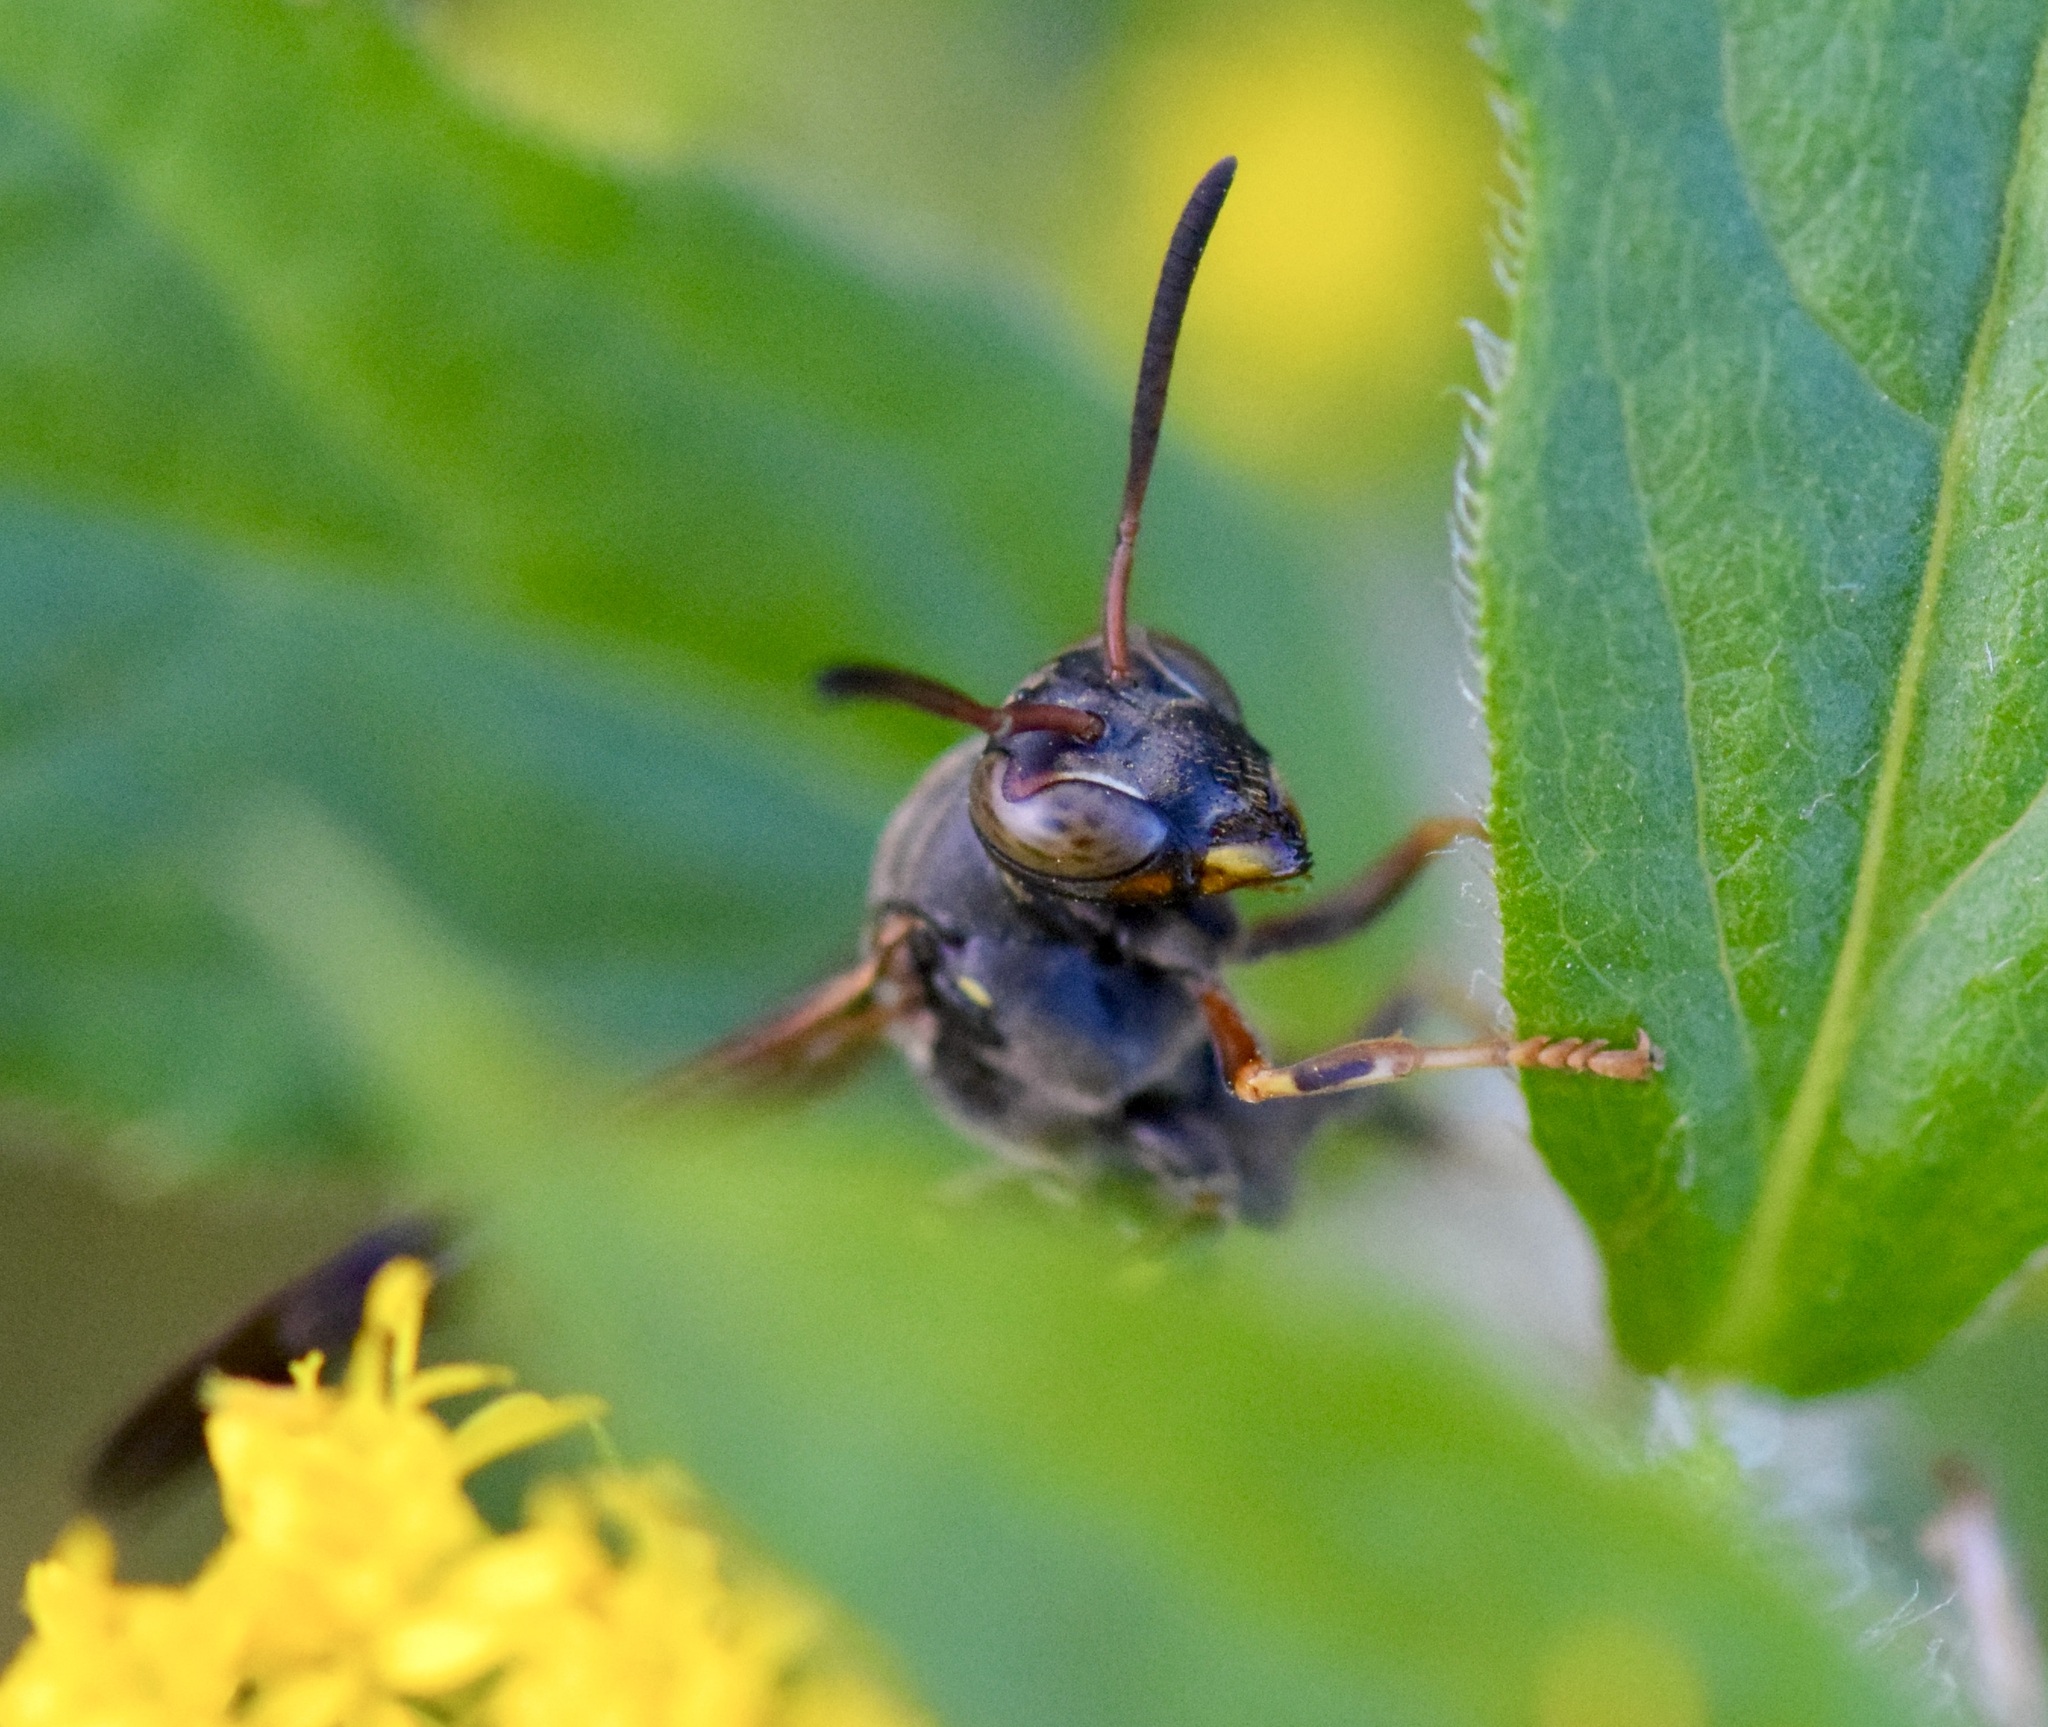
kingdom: Animalia
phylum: Arthropoda
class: Insecta
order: Hymenoptera
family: Eumenidae
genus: Polistes
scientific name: Polistes fuscatus
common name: Dark paper wasp
